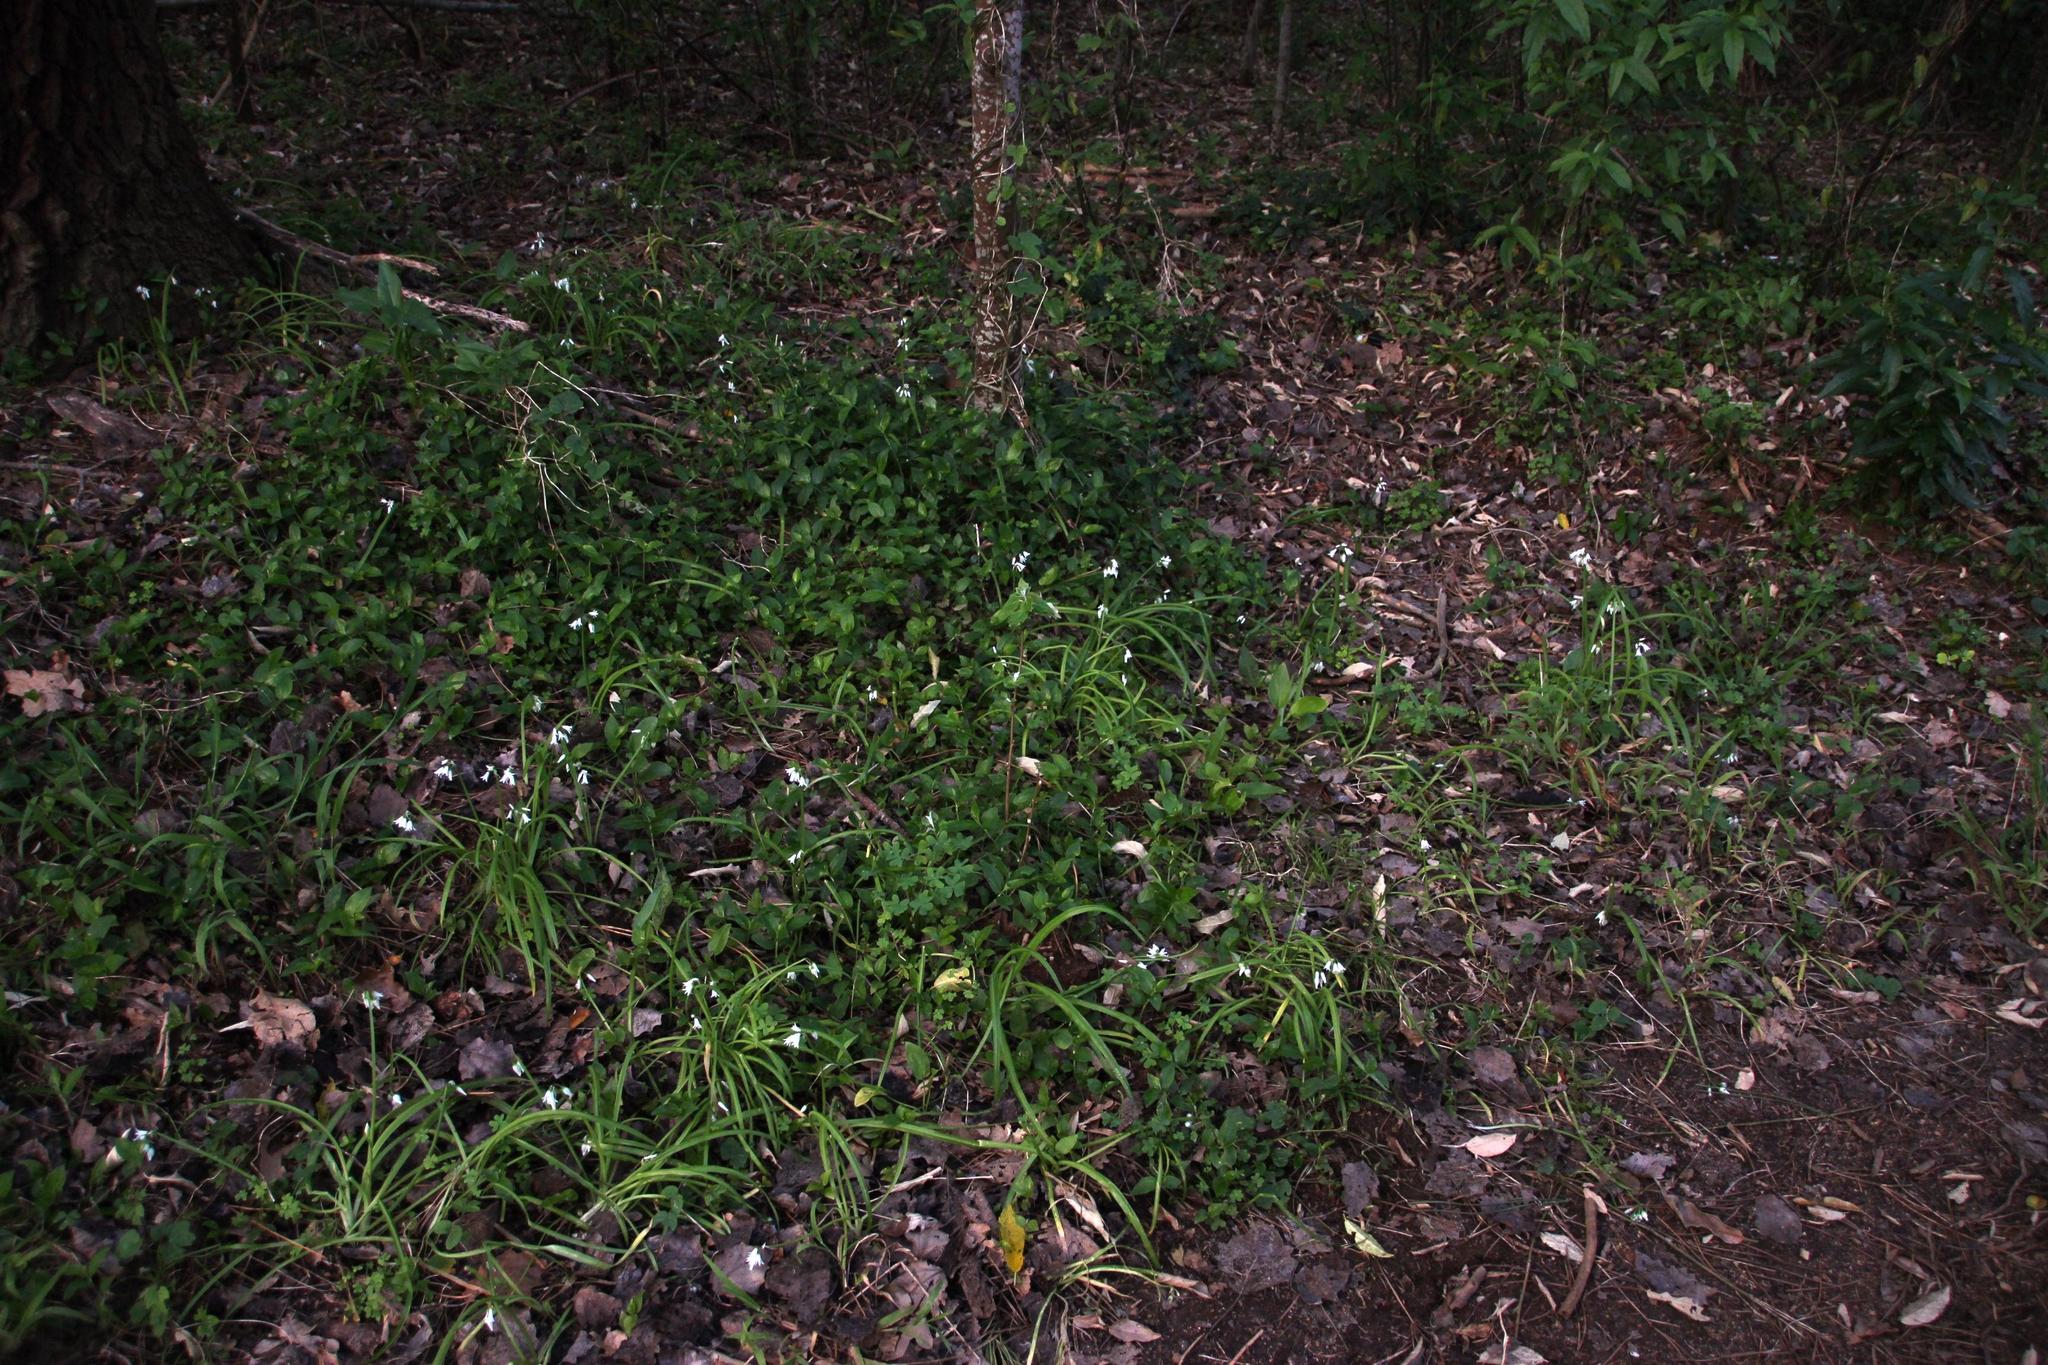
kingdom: Plantae
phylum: Tracheophyta
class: Liliopsida
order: Asparagales
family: Amaryllidaceae
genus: Allium
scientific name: Allium triquetrum
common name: Three-cornered garlic
